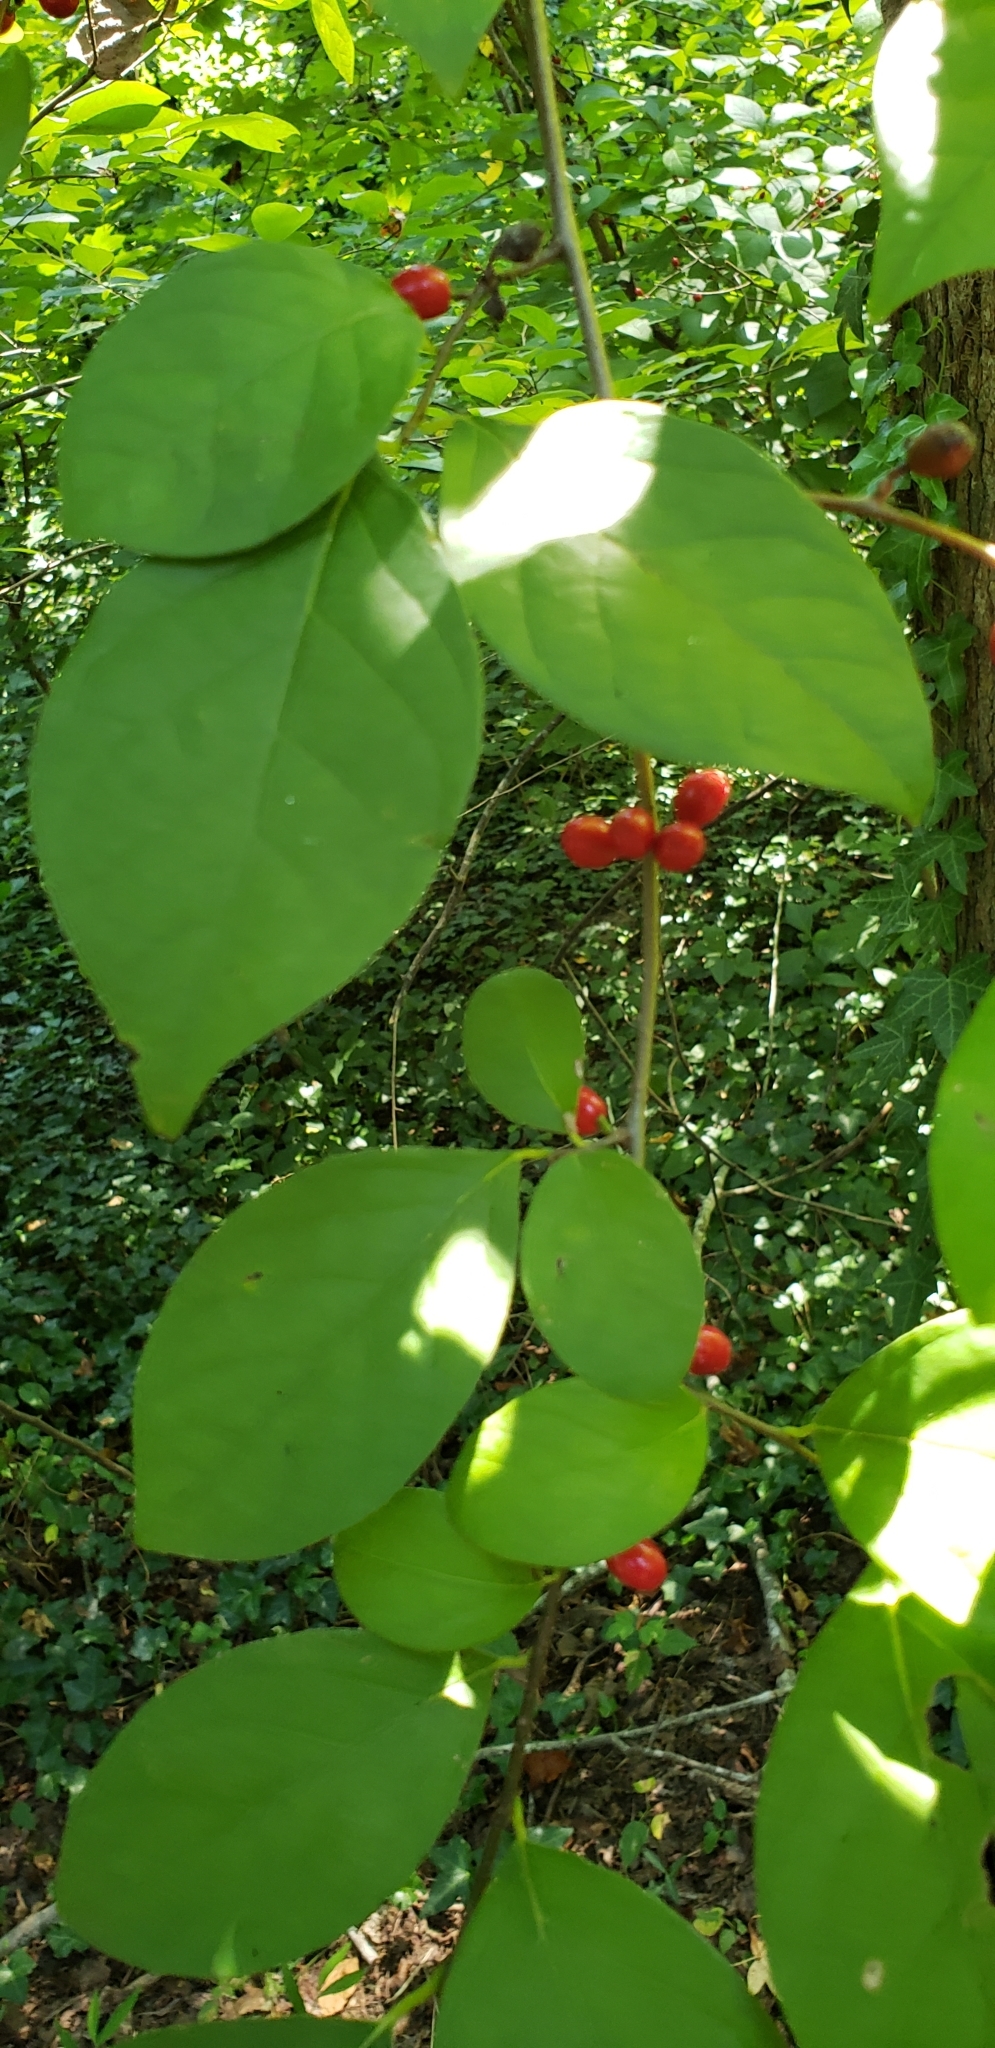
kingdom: Plantae
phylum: Tracheophyta
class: Magnoliopsida
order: Laurales
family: Lauraceae
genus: Lindera
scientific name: Lindera benzoin
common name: Spicebush
